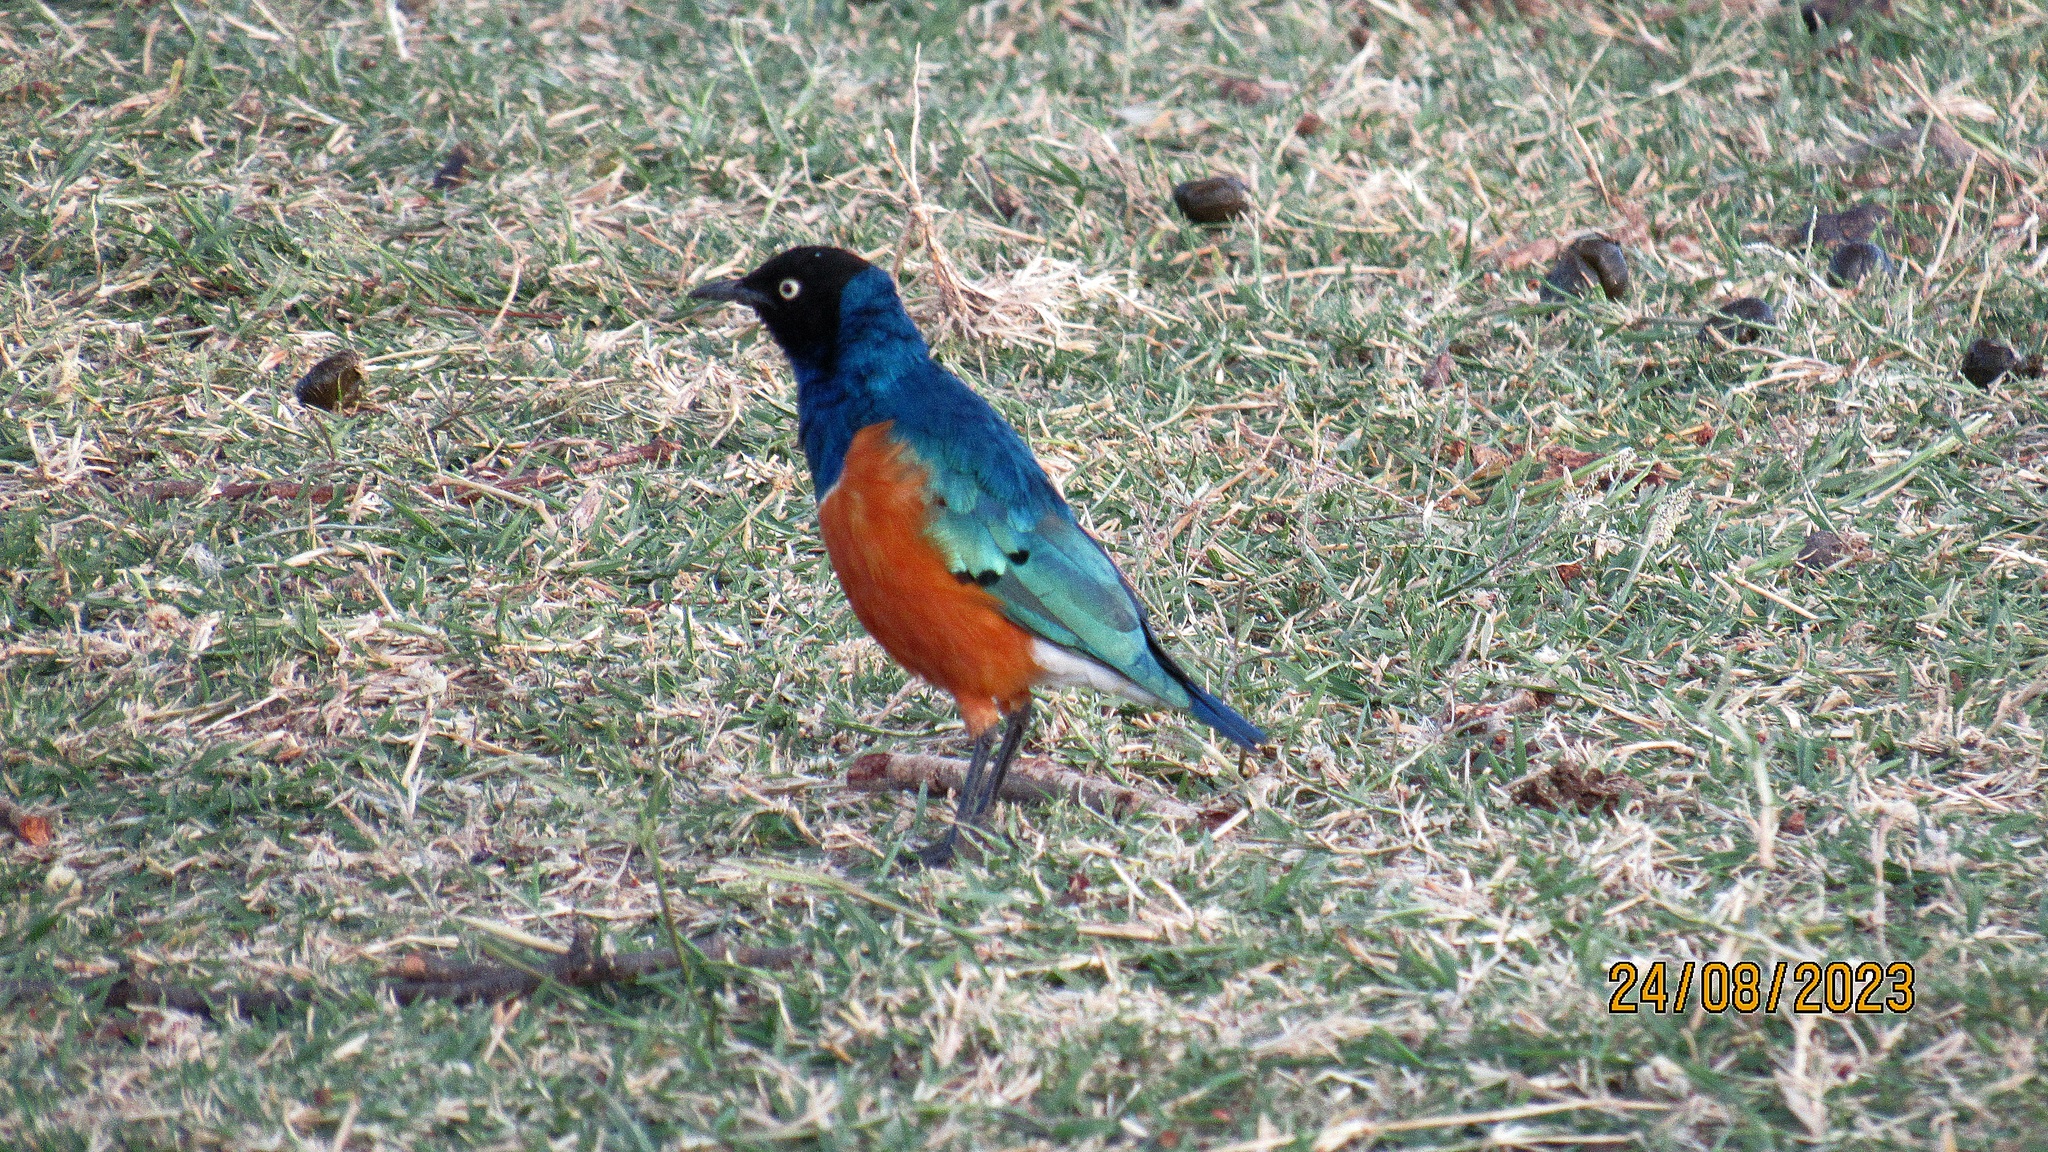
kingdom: Animalia
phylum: Chordata
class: Aves
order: Passeriformes
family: Sturnidae
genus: Lamprotornis
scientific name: Lamprotornis superbus
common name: Superb starling
